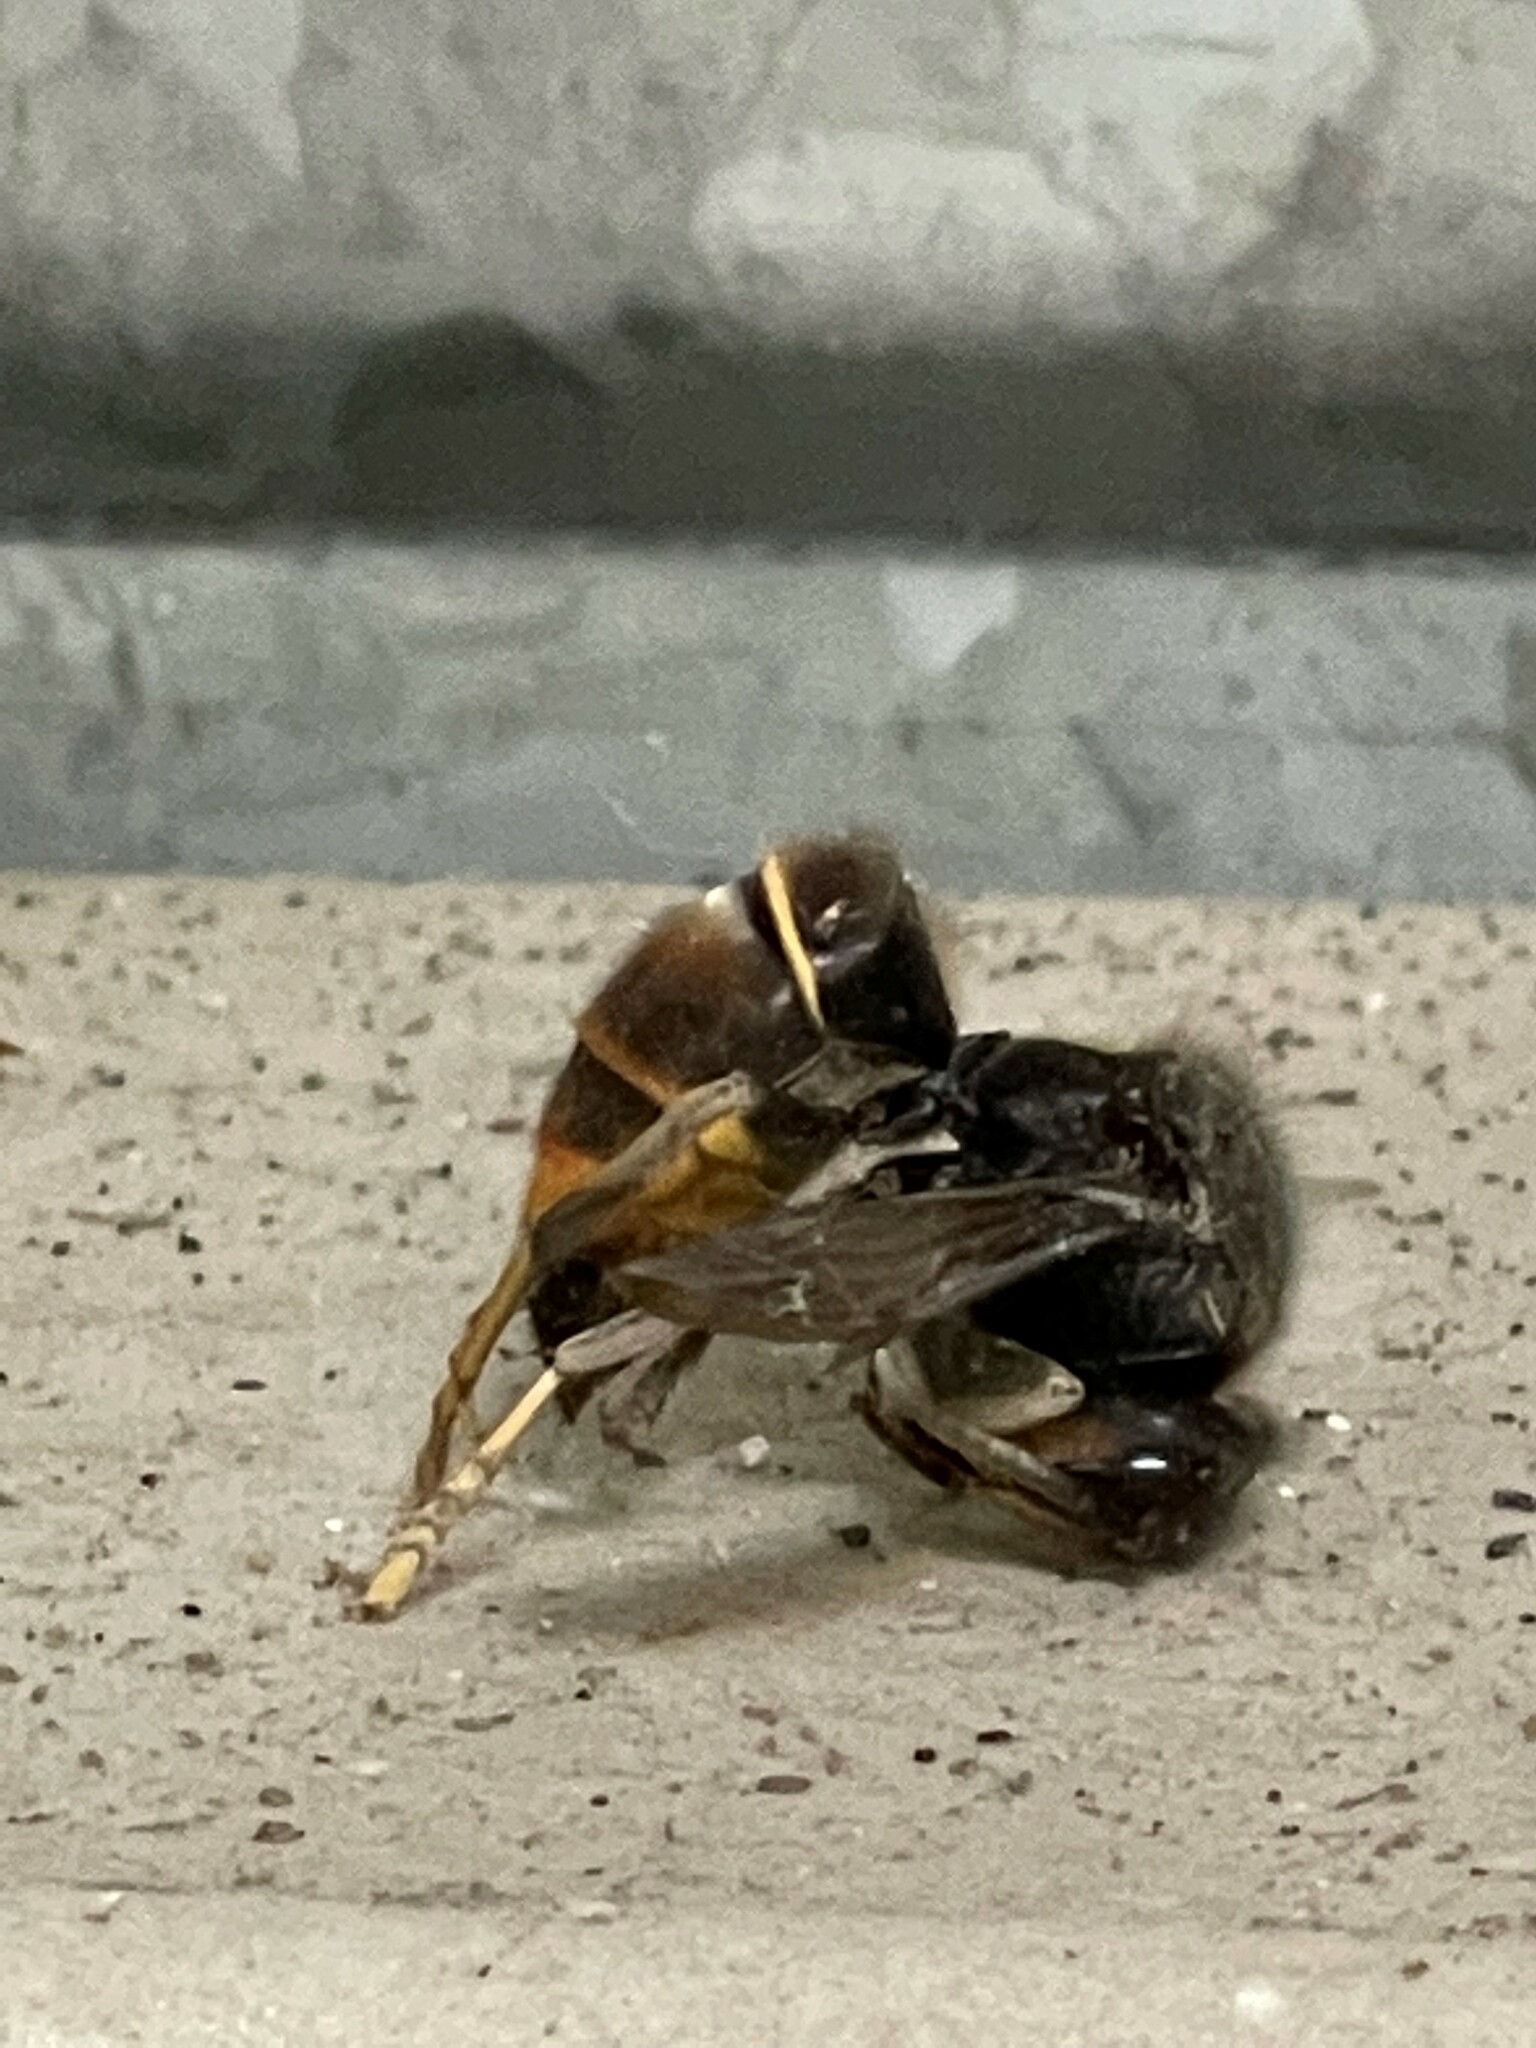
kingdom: Animalia
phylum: Arthropoda
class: Insecta
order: Hymenoptera
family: Vespidae
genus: Vespa
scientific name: Vespa velutina
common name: Asian hornet
